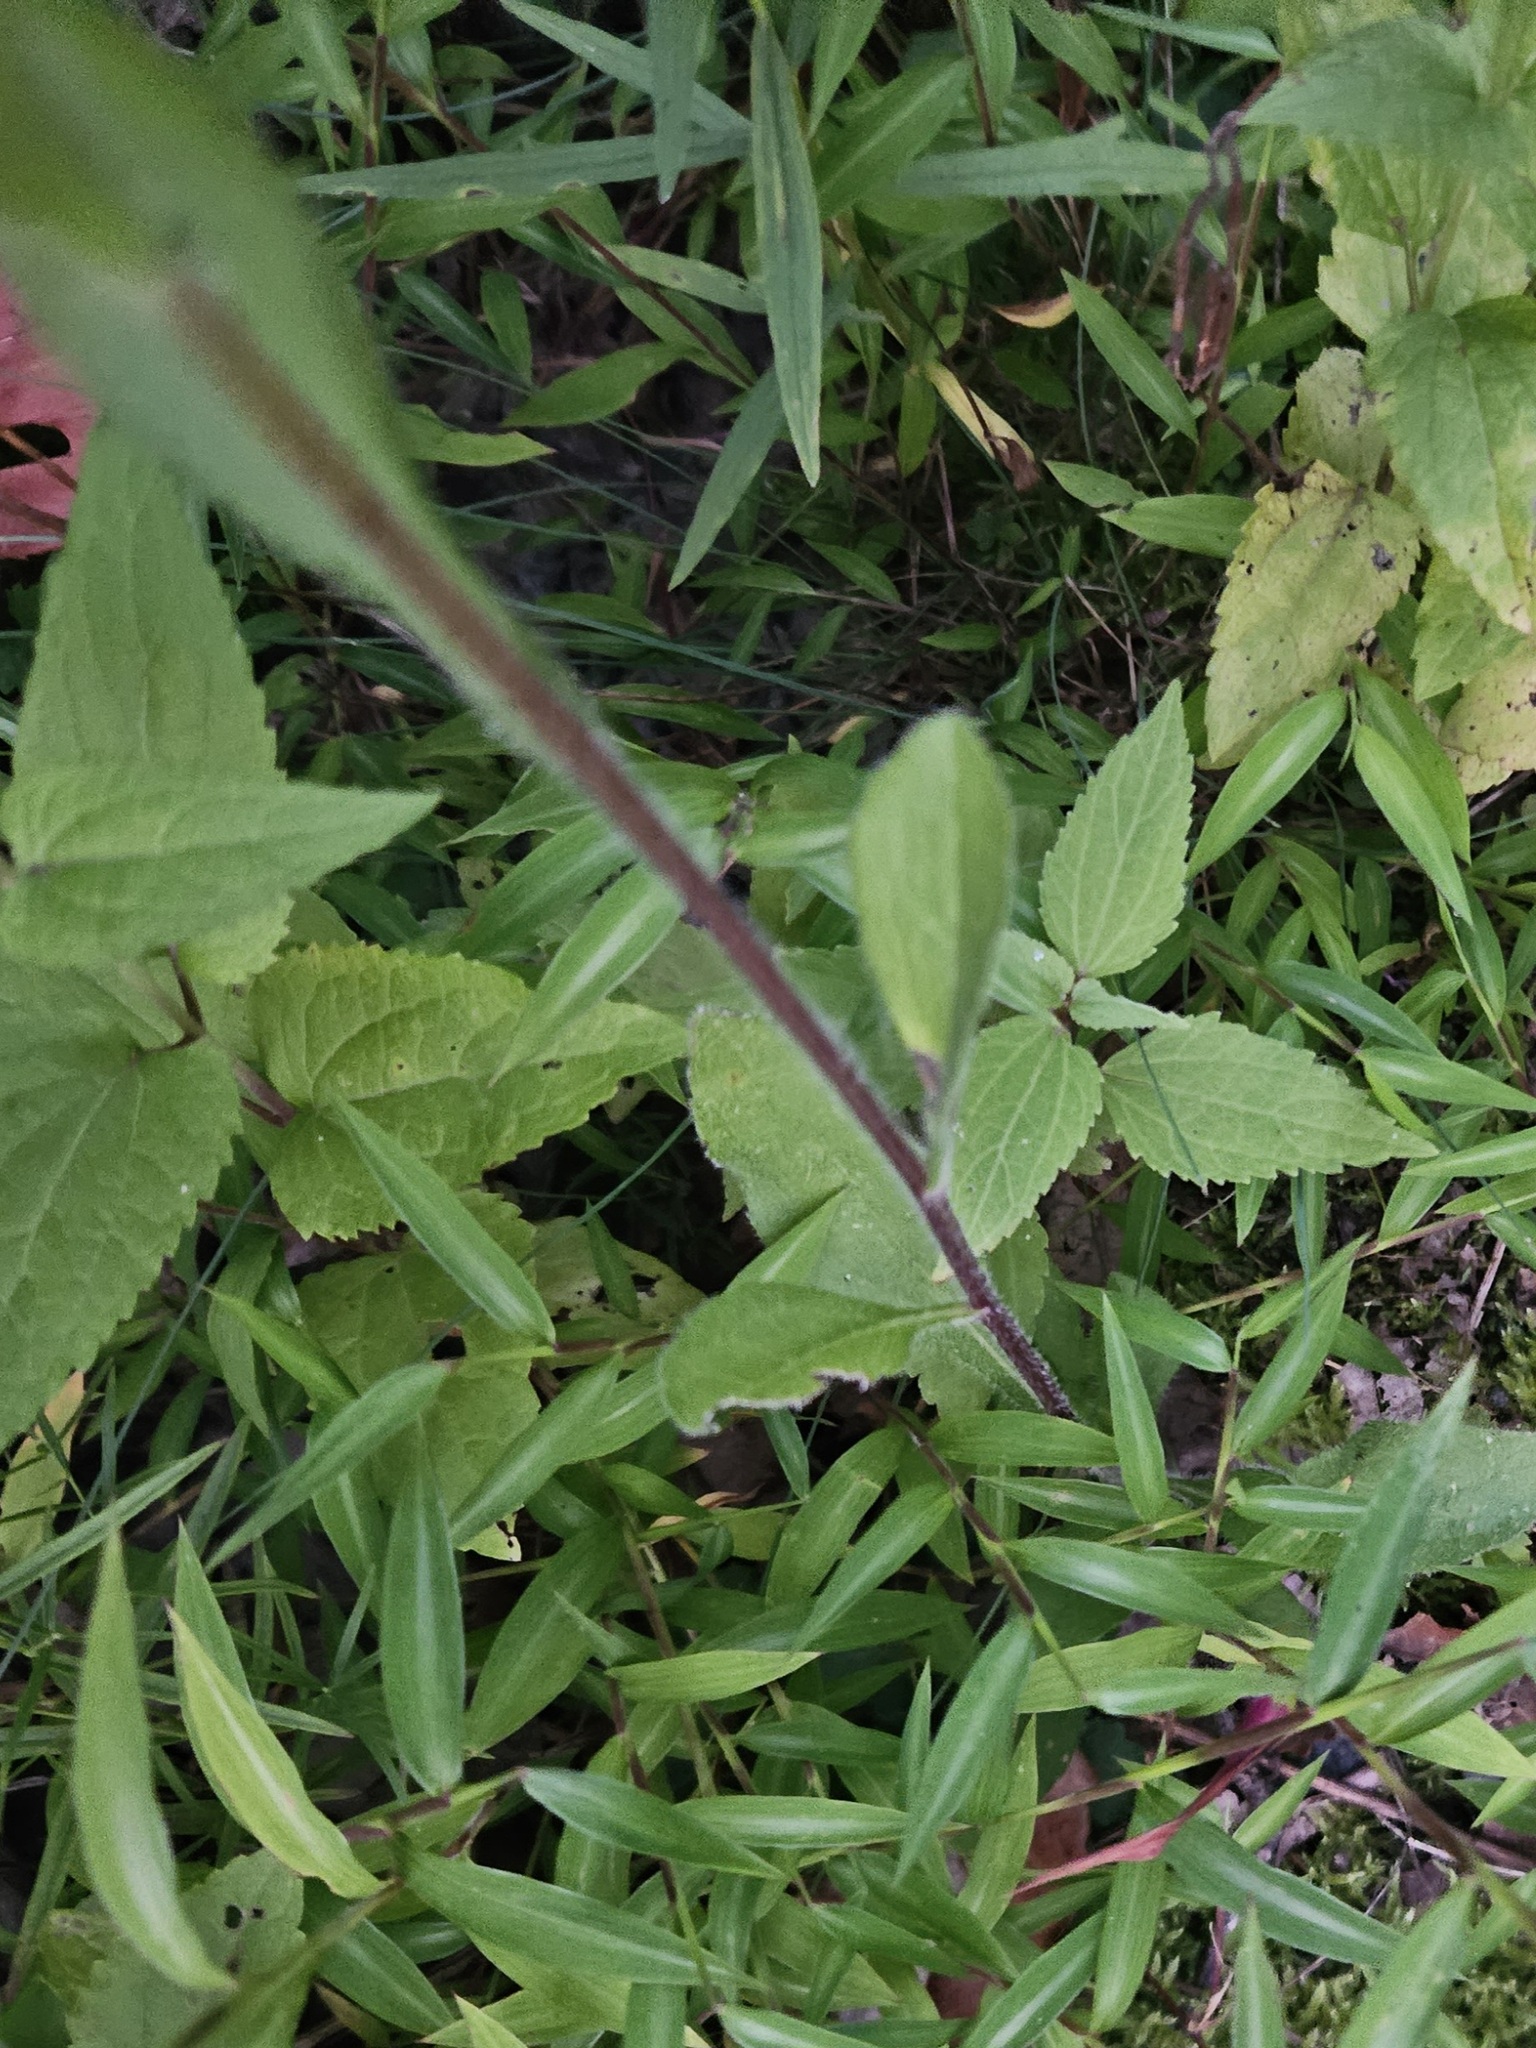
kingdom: Plantae
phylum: Tracheophyta
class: Magnoliopsida
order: Asterales
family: Asteraceae
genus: Rudbeckia
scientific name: Rudbeckia hirta
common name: Black-eyed-susan
